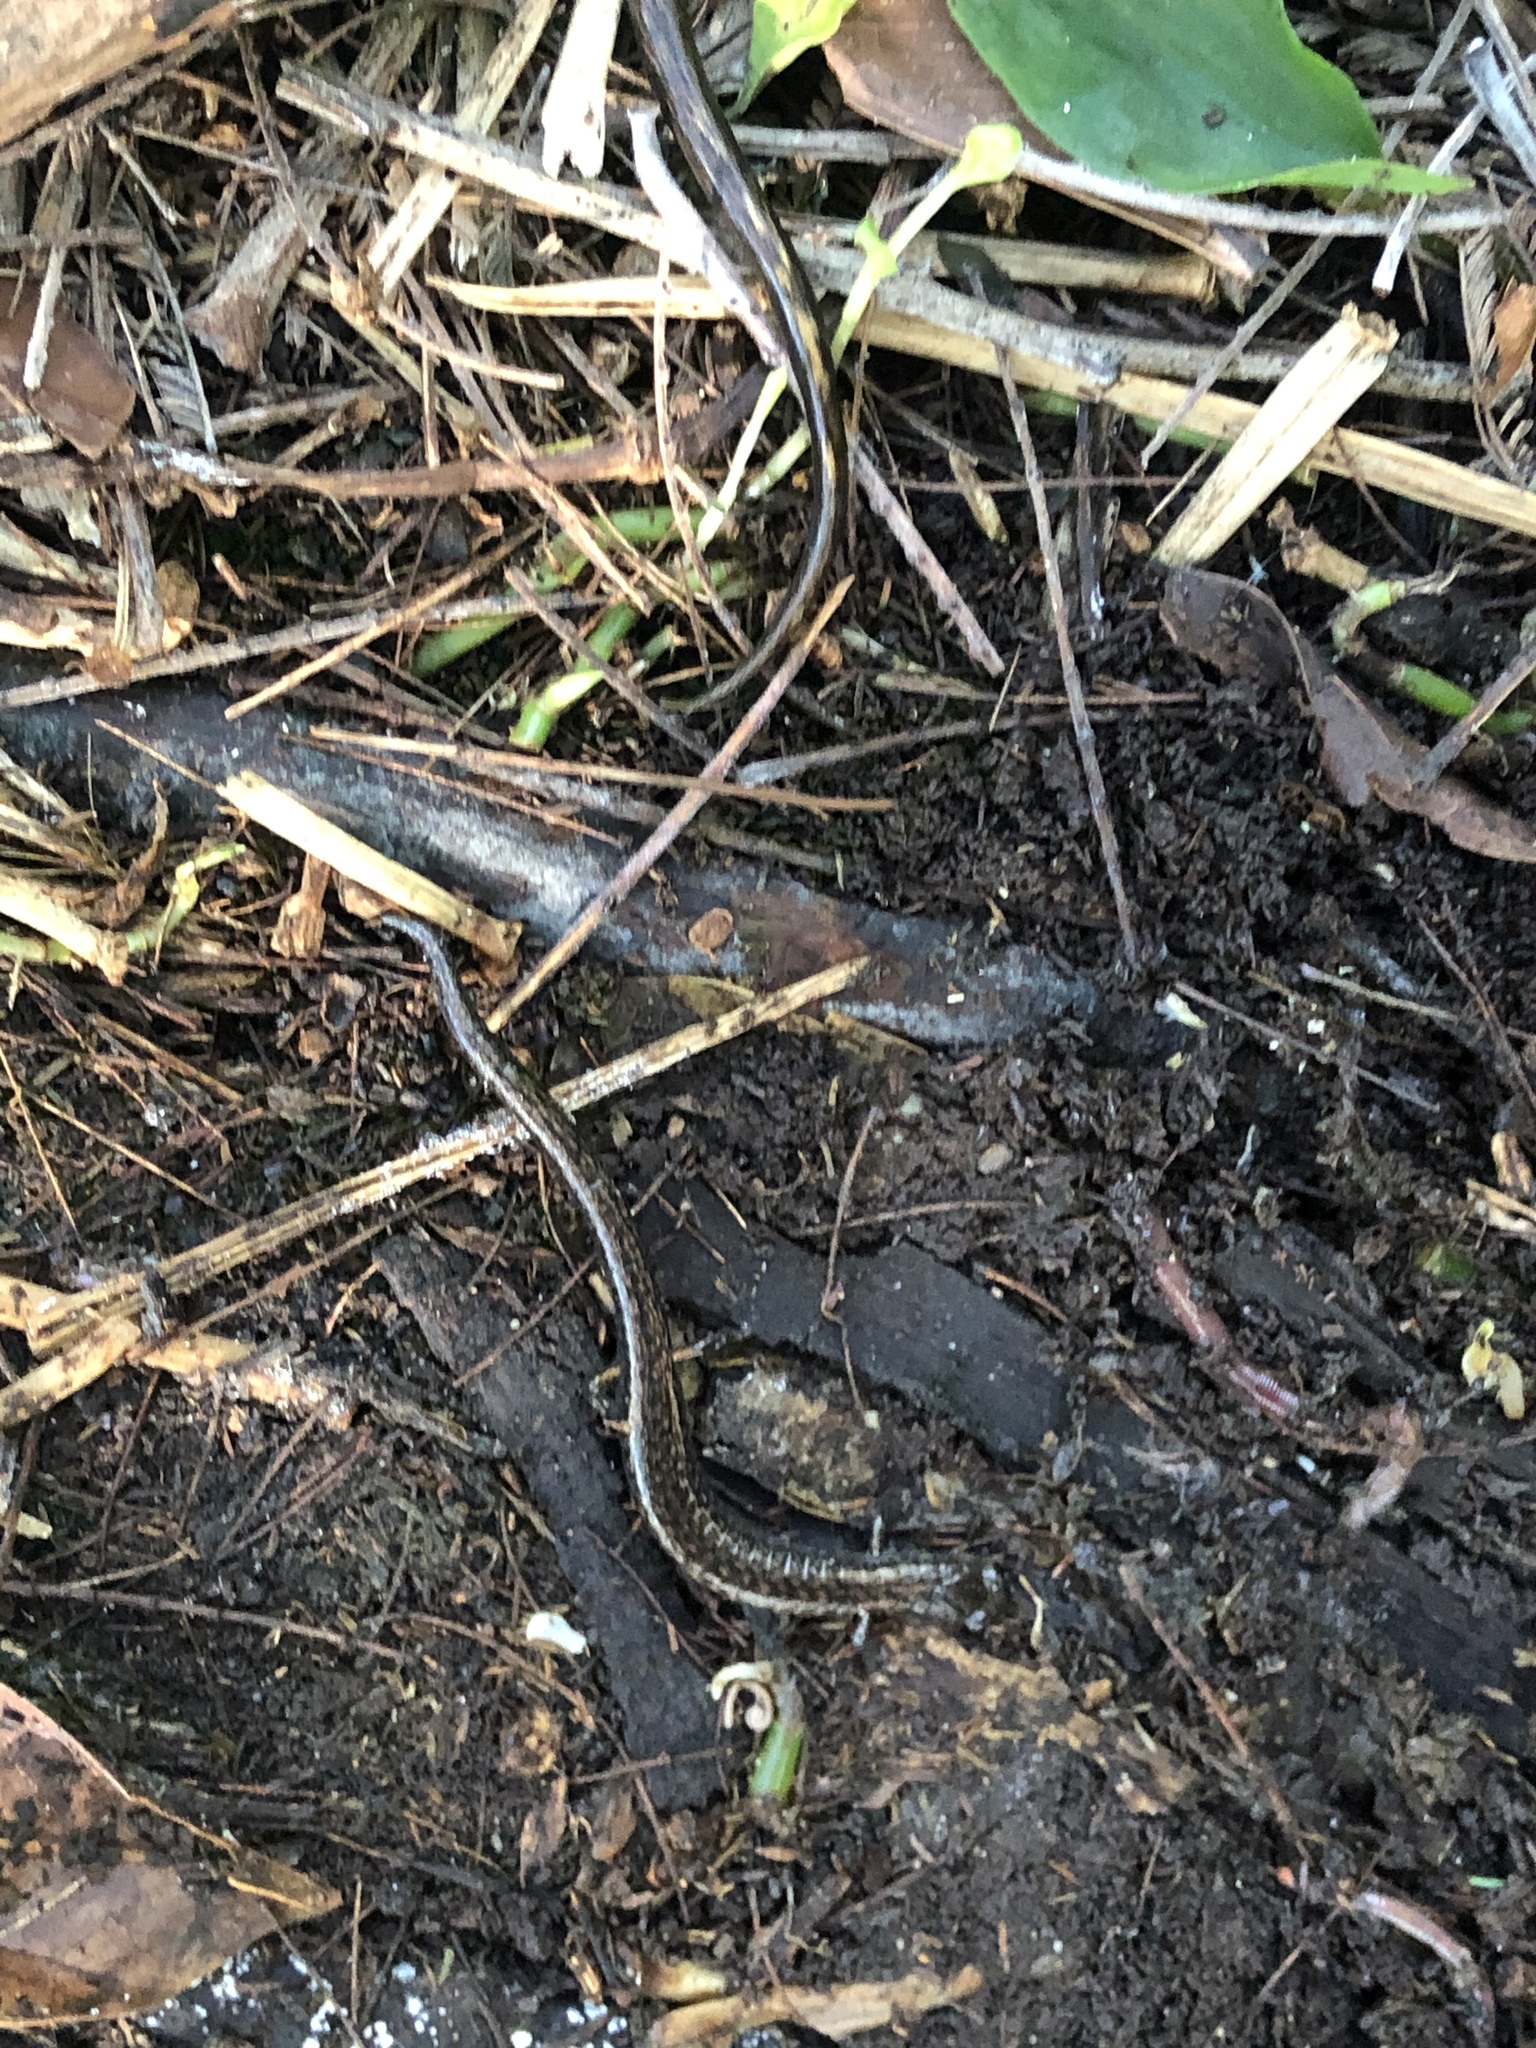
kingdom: Animalia
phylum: Chordata
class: Amphibia
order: Caudata
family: Plethodontidae
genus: Batrachoseps
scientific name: Batrachoseps attenuatus
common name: California slender salamander
